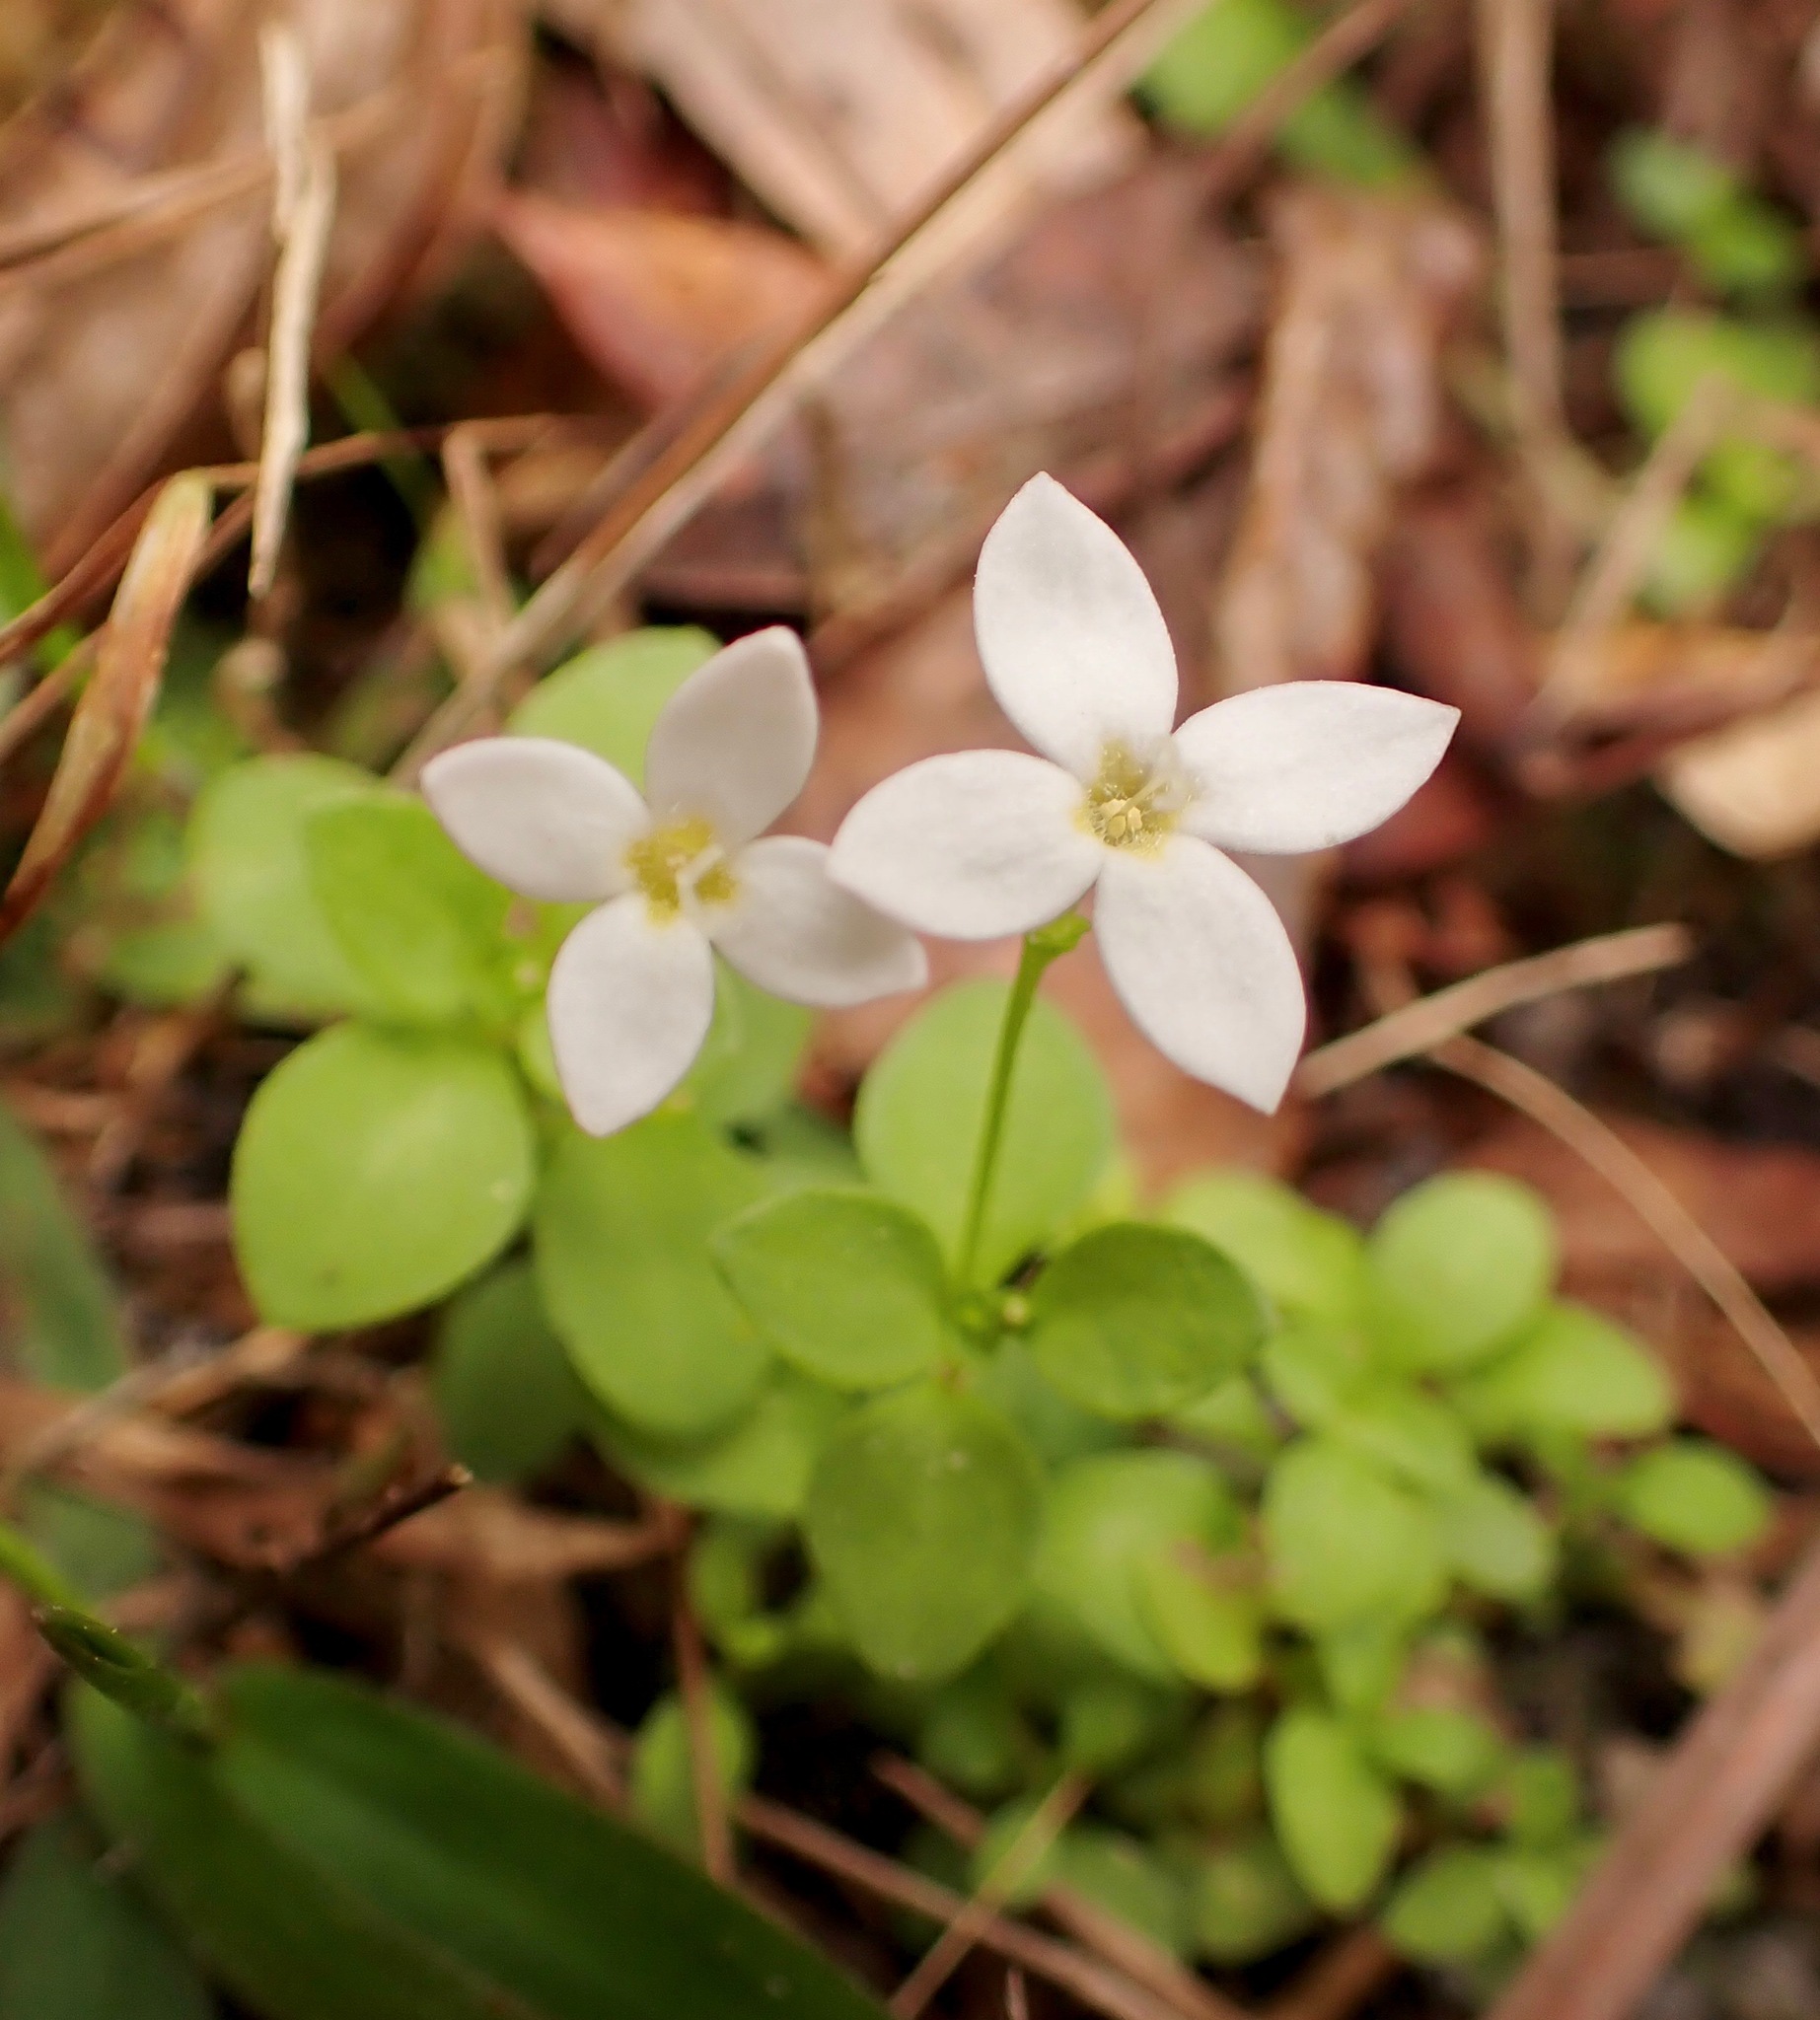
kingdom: Plantae
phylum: Tracheophyta
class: Magnoliopsida
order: Gentianales
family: Rubiaceae
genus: Houstonia
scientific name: Houstonia procumbens
